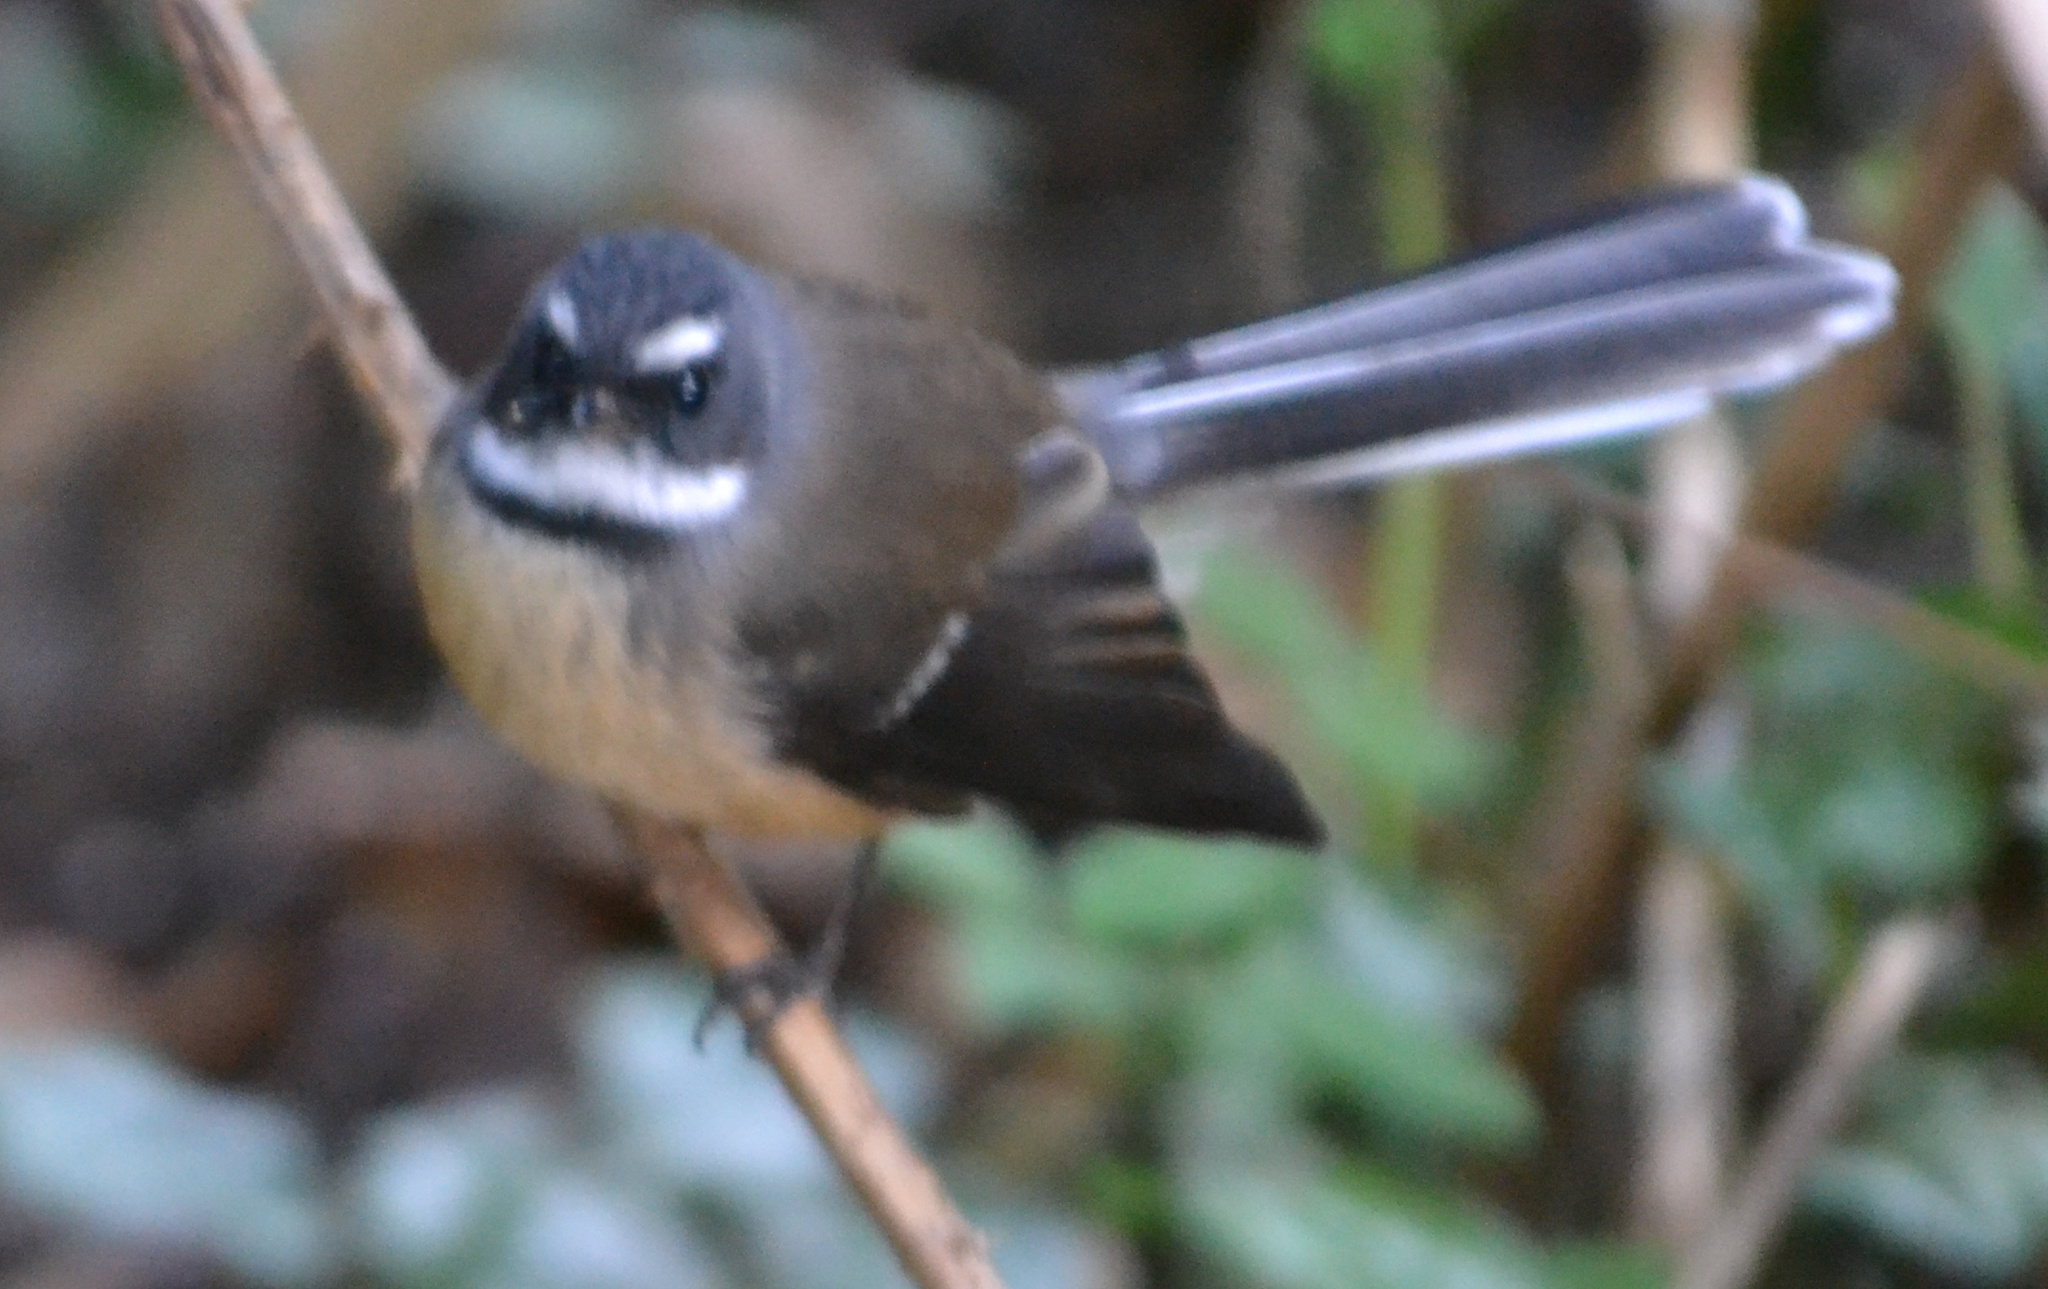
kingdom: Animalia
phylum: Chordata
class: Aves
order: Passeriformes
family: Rhipiduridae
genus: Rhipidura
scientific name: Rhipidura fuliginosa
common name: New zealand fantail
